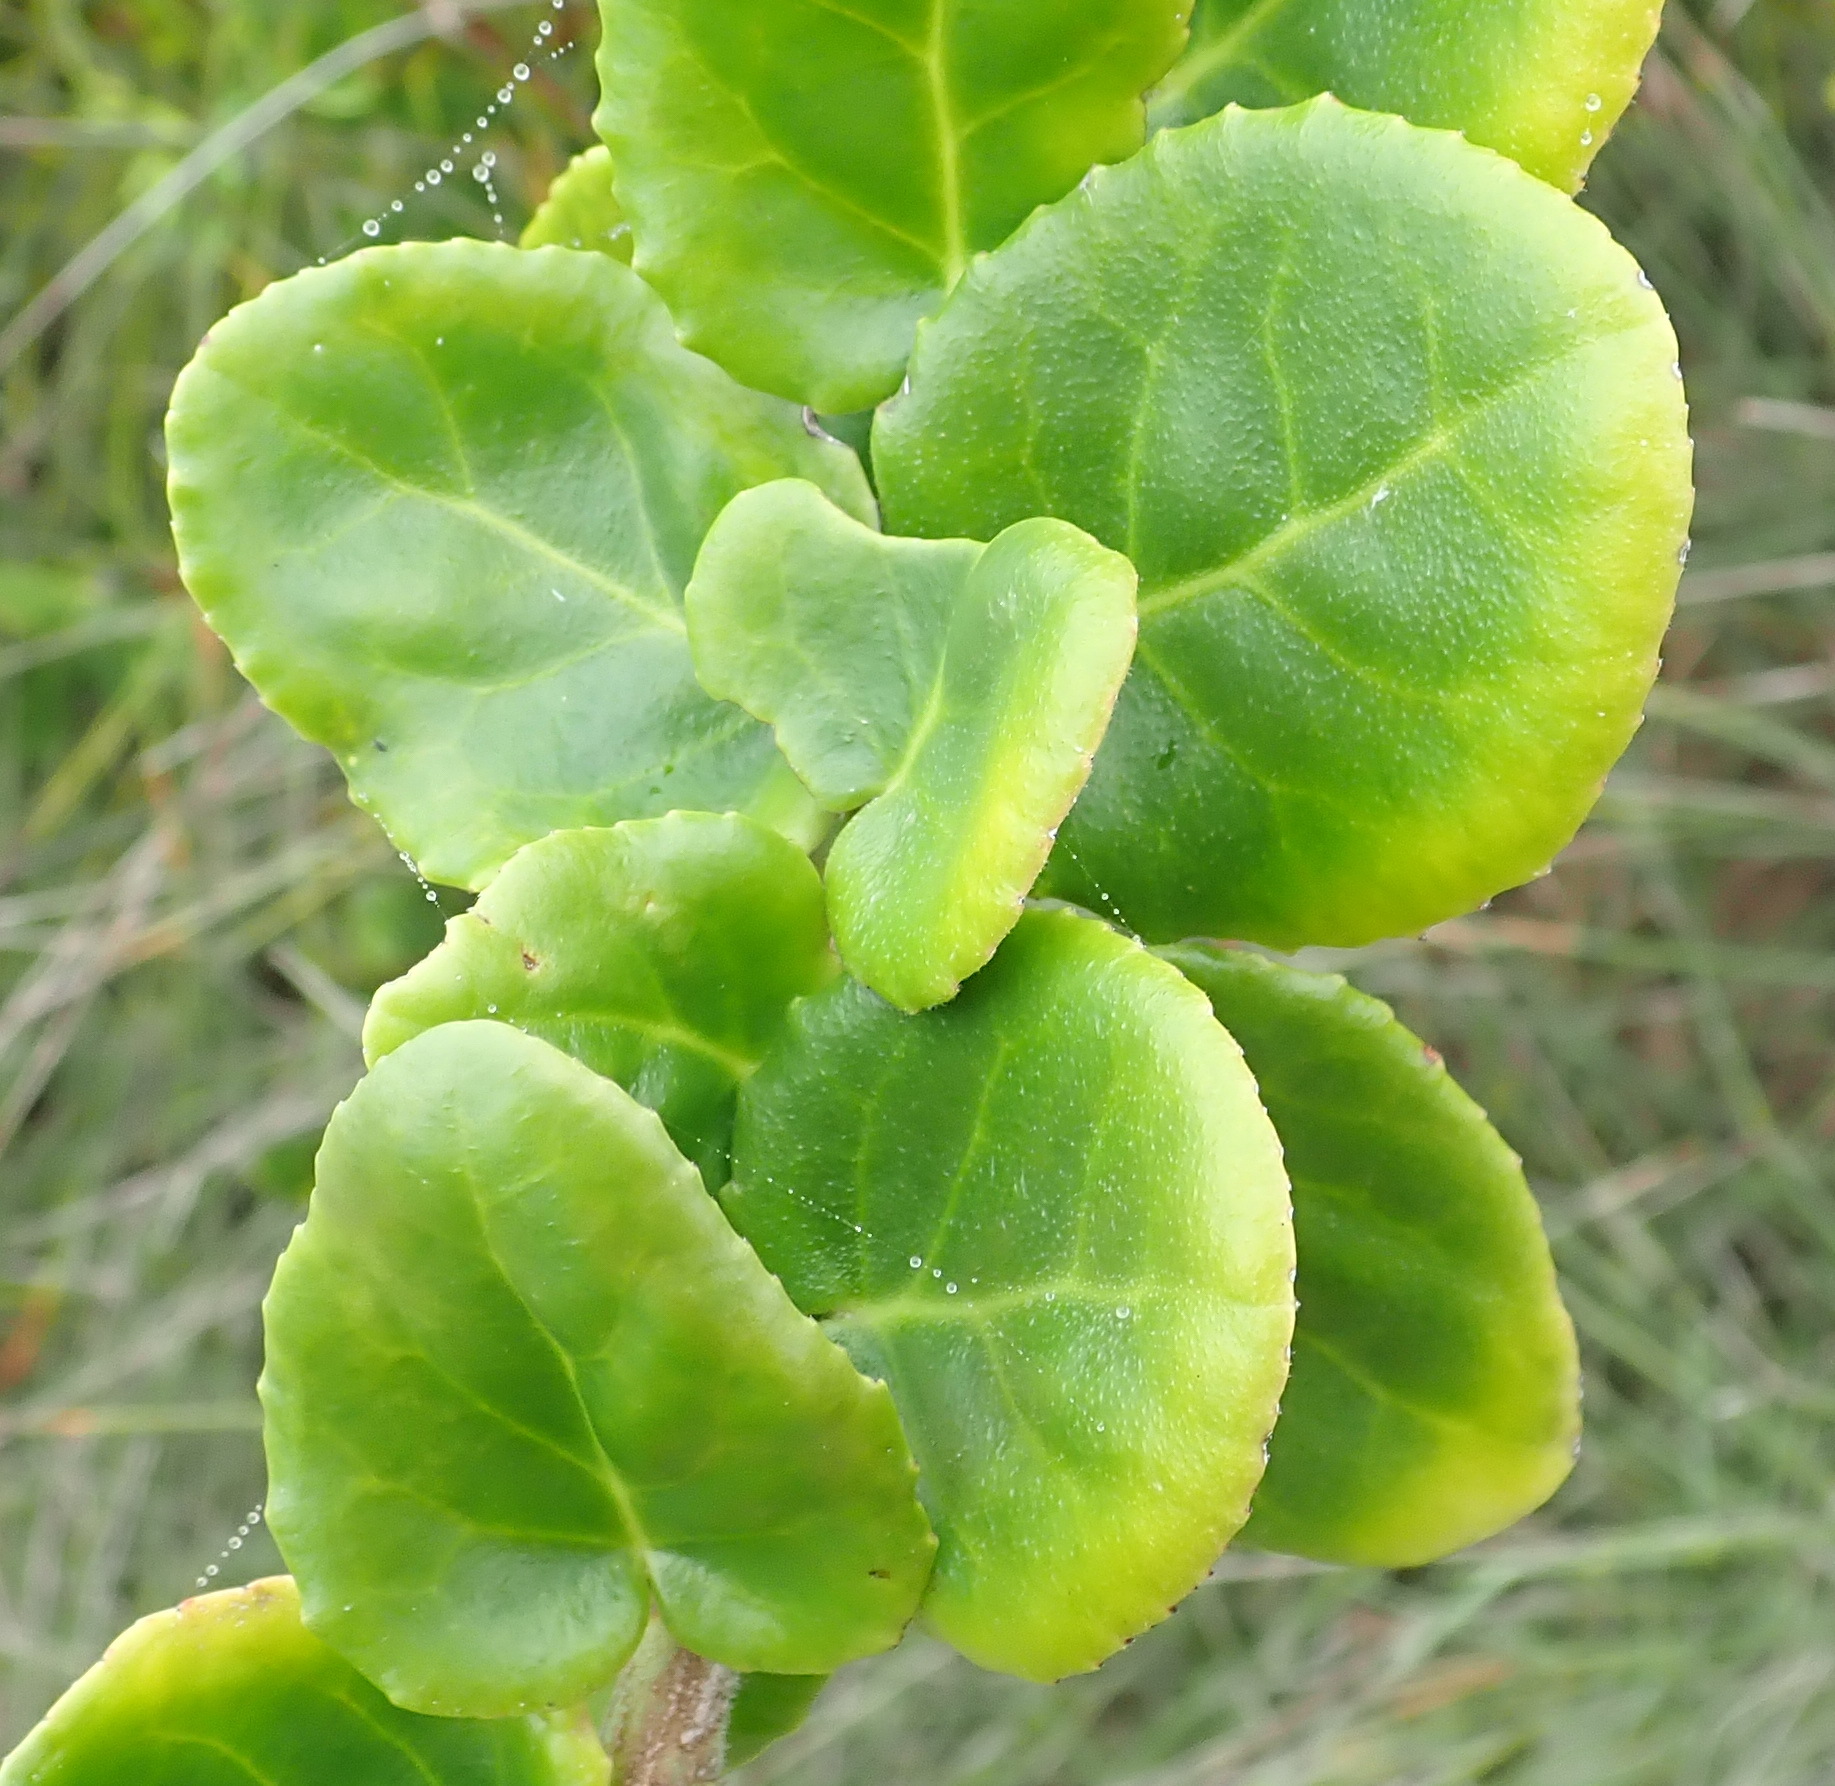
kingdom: Plantae
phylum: Tracheophyta
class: Magnoliopsida
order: Celastrales
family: Celastraceae
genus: Mystroxylon
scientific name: Mystroxylon aethiopicum
